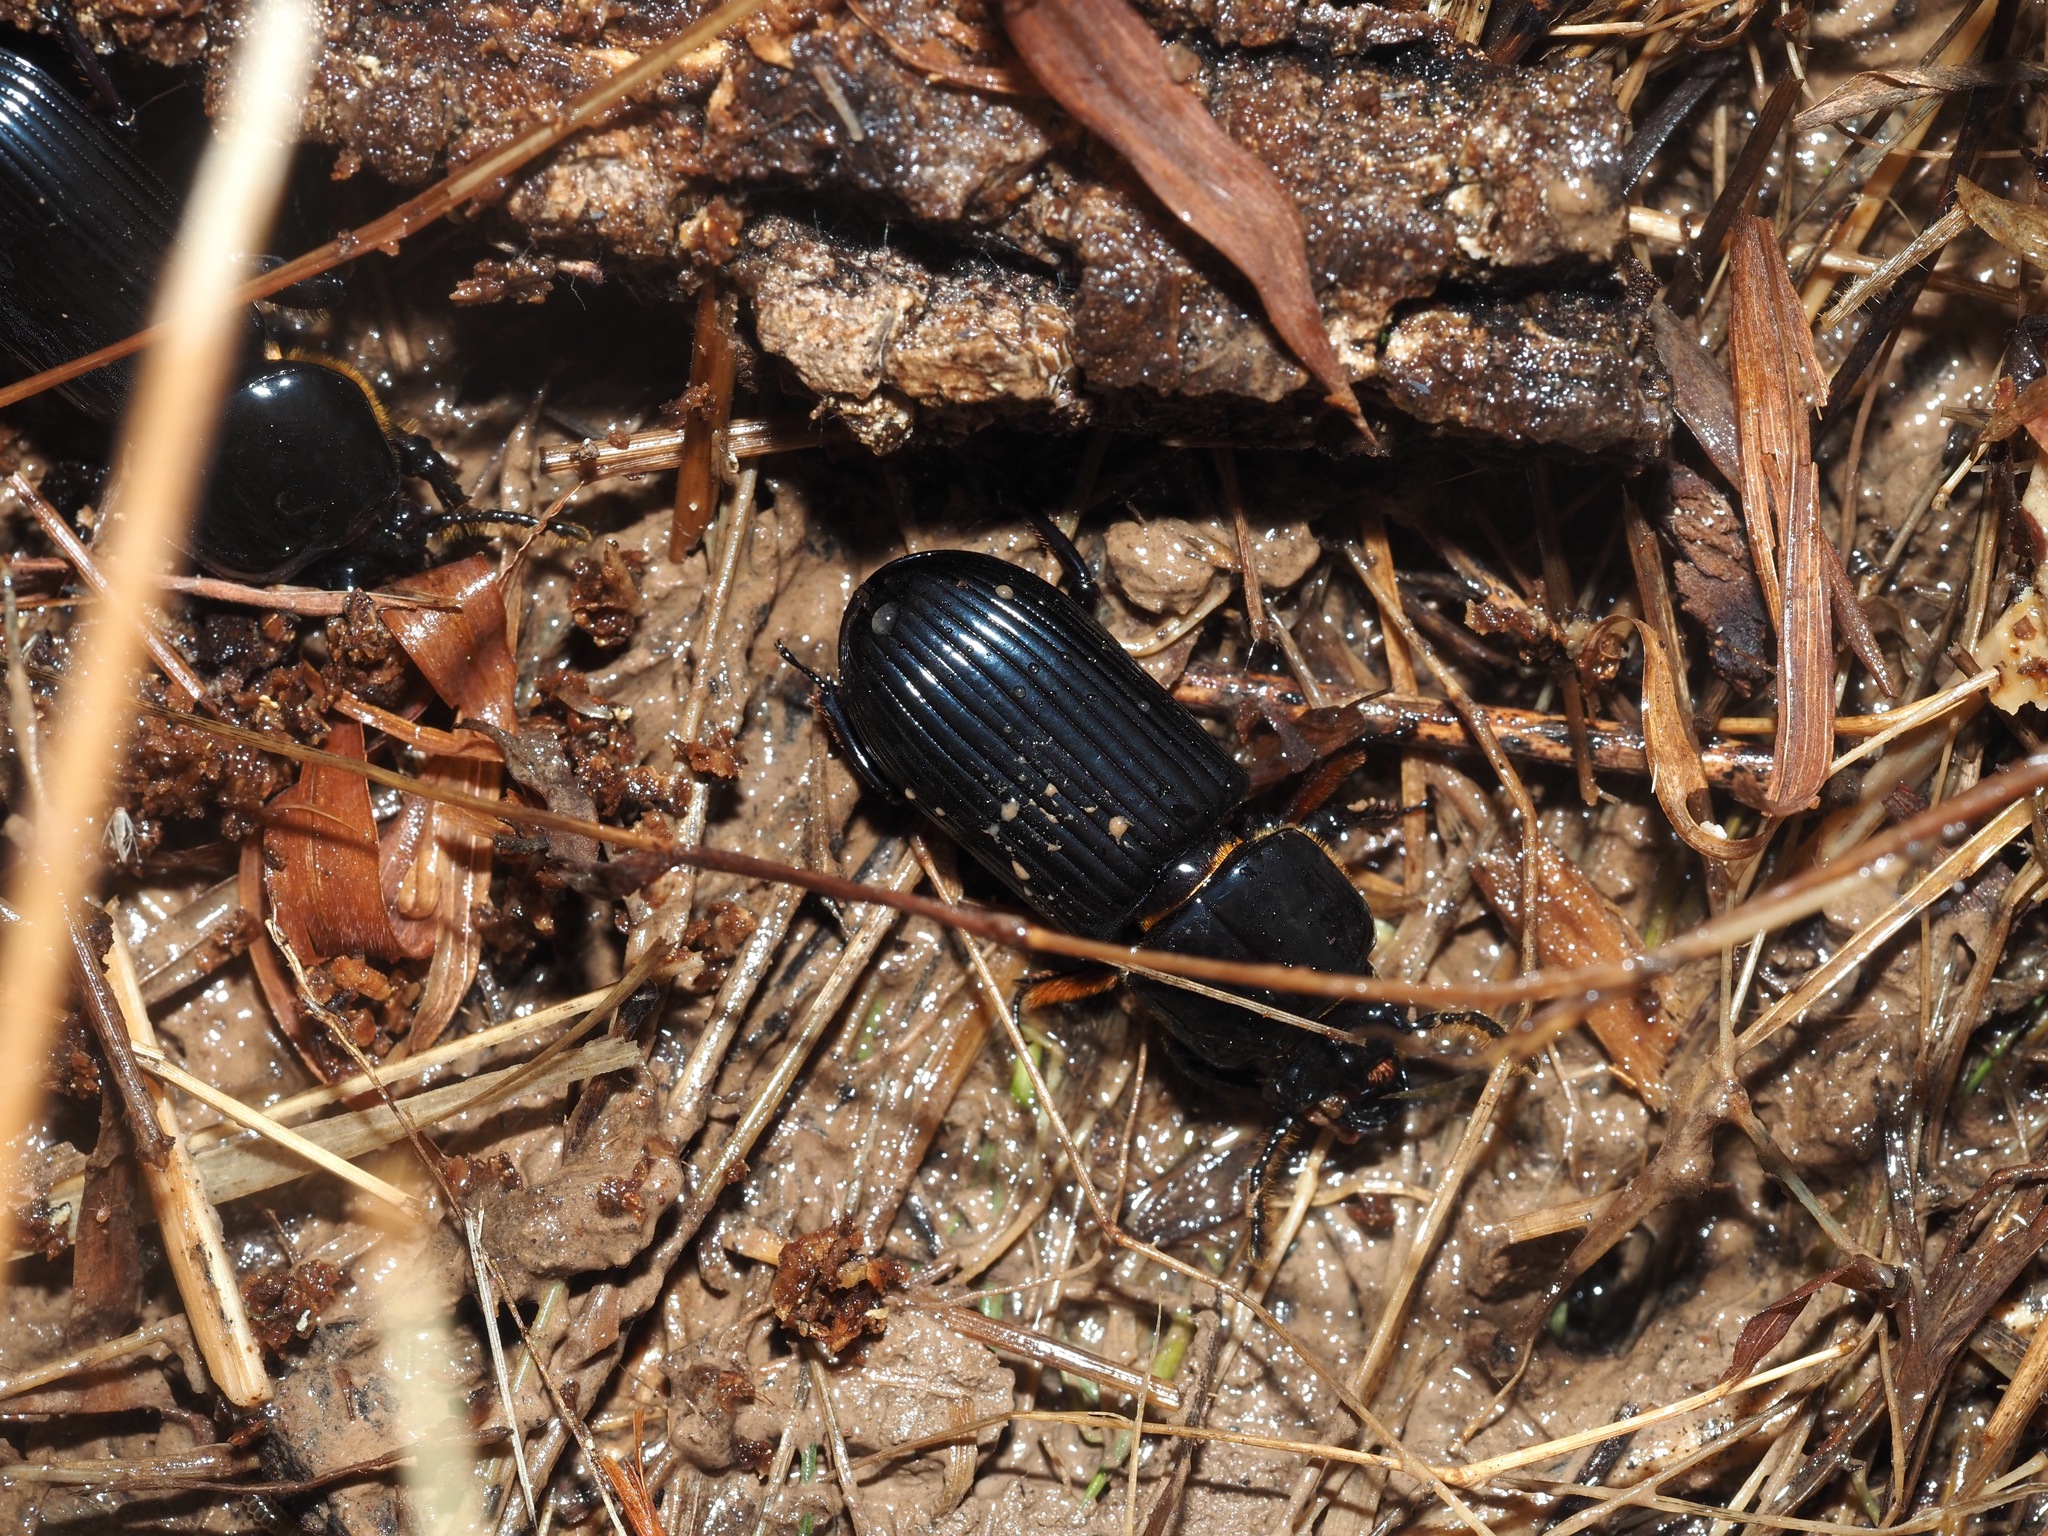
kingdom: Animalia
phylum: Arthropoda
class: Insecta
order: Coleoptera
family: Passalidae
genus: Odontotaenius
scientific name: Odontotaenius disjunctus
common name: Patent leather beetle
